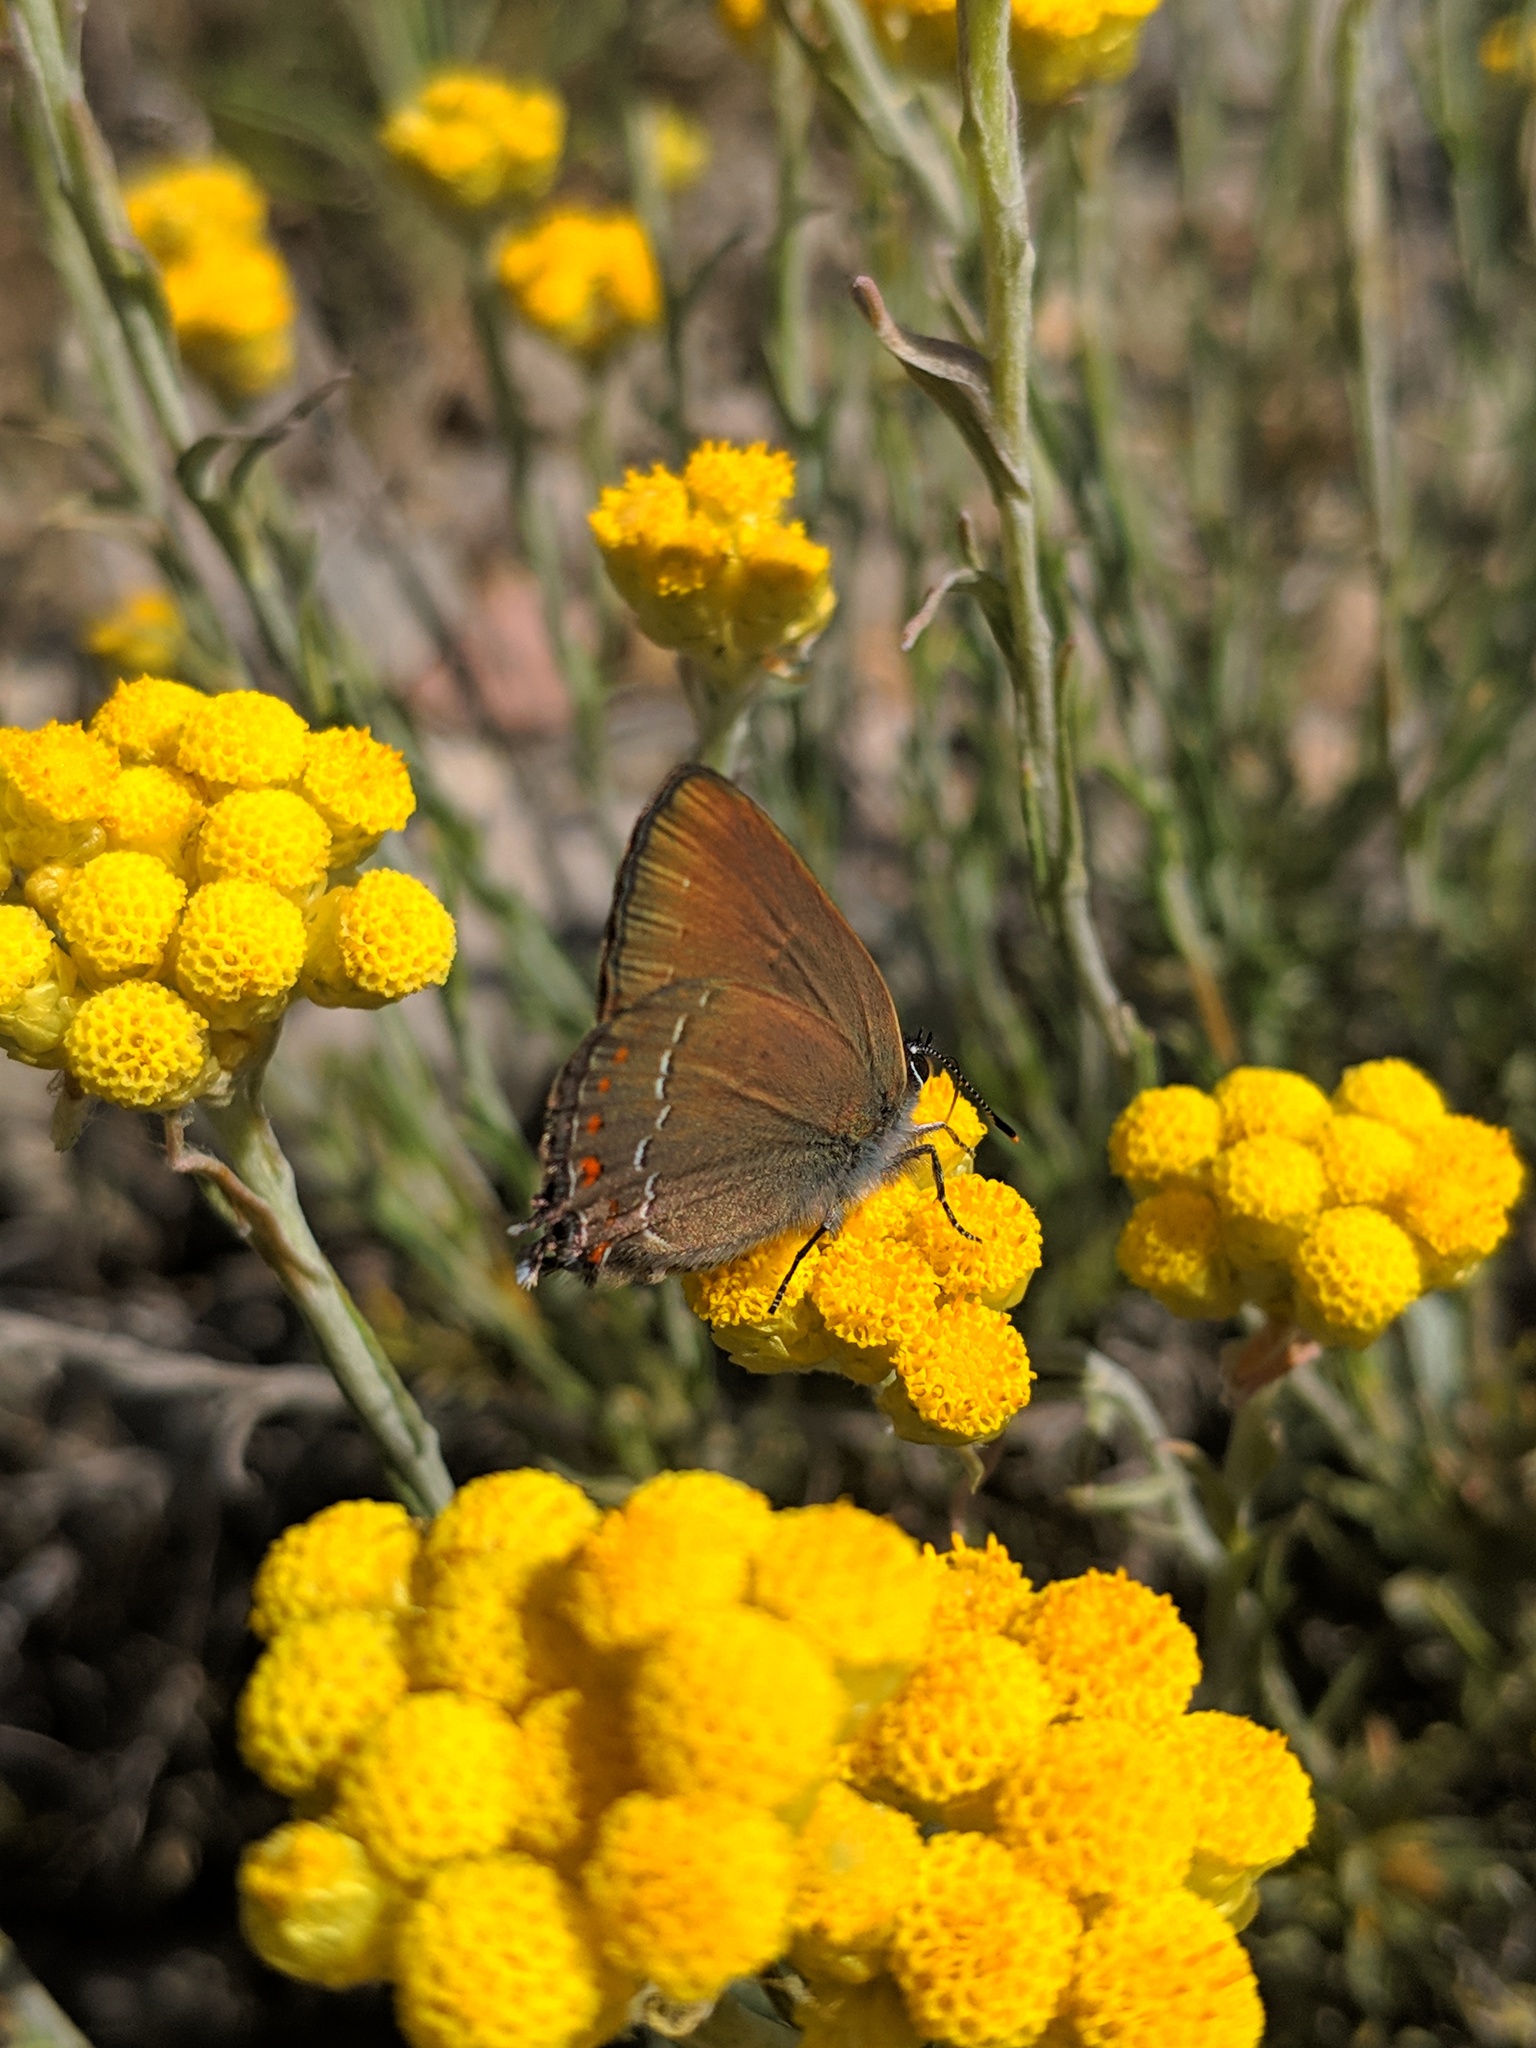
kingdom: Animalia
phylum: Arthropoda
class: Insecta
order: Lepidoptera
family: Lycaenidae
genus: Fixsenia
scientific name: Fixsenia esculi
